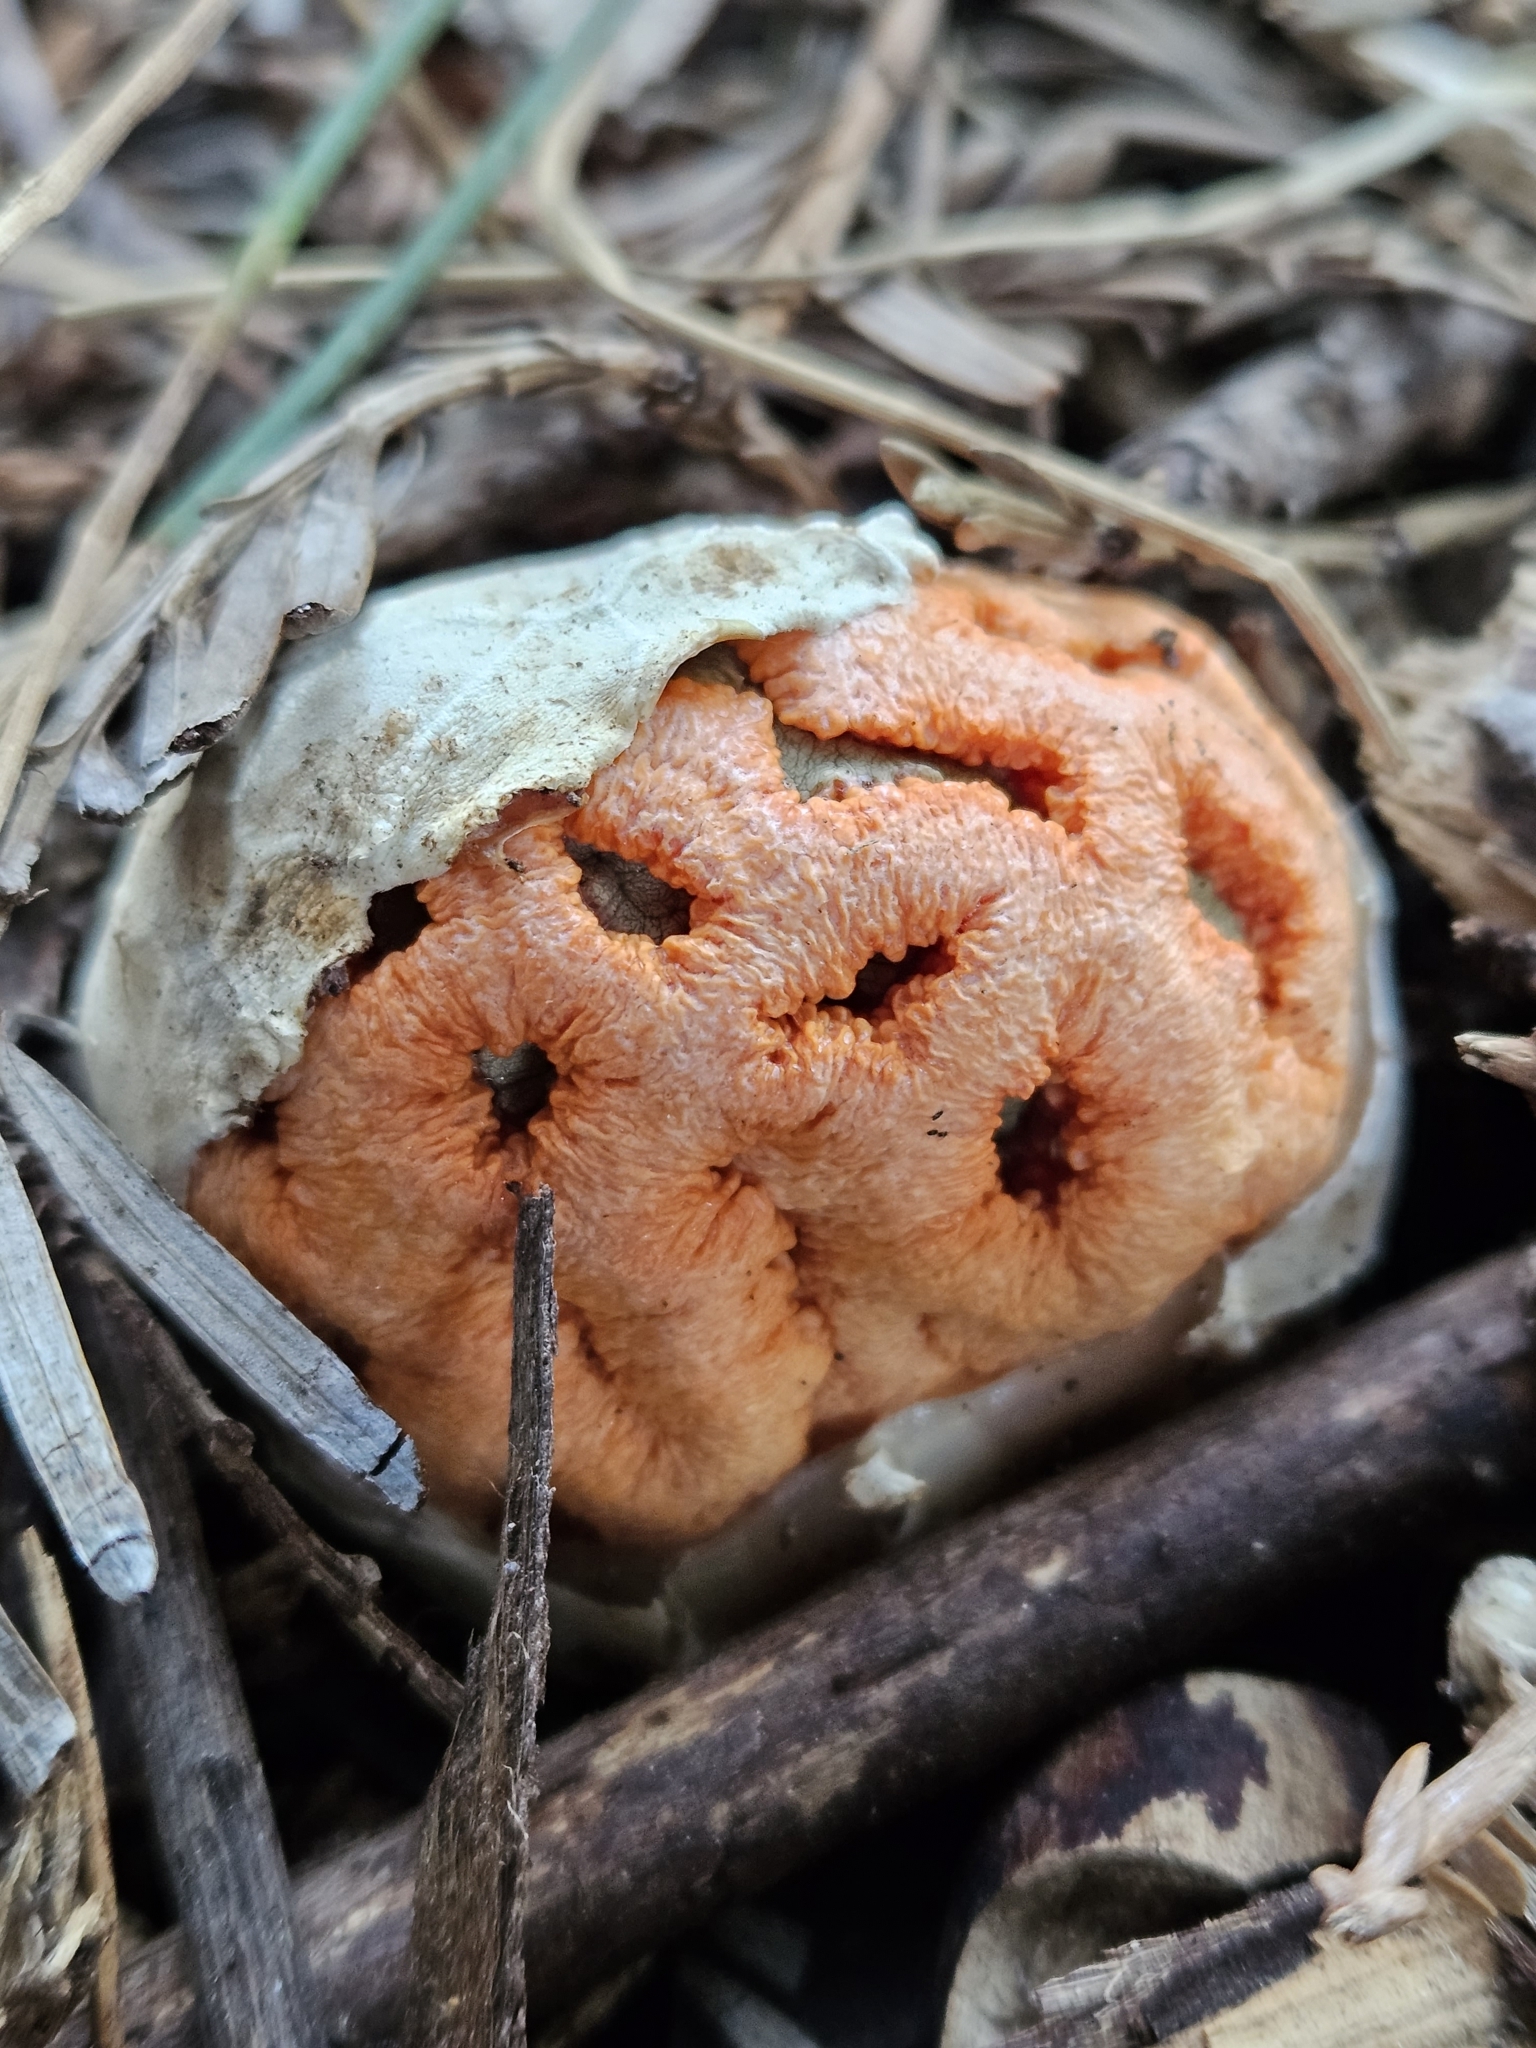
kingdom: Fungi
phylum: Basidiomycota
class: Agaricomycetes
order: Phallales
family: Phallaceae
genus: Clathrus
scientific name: Clathrus ruber
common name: Red cage
